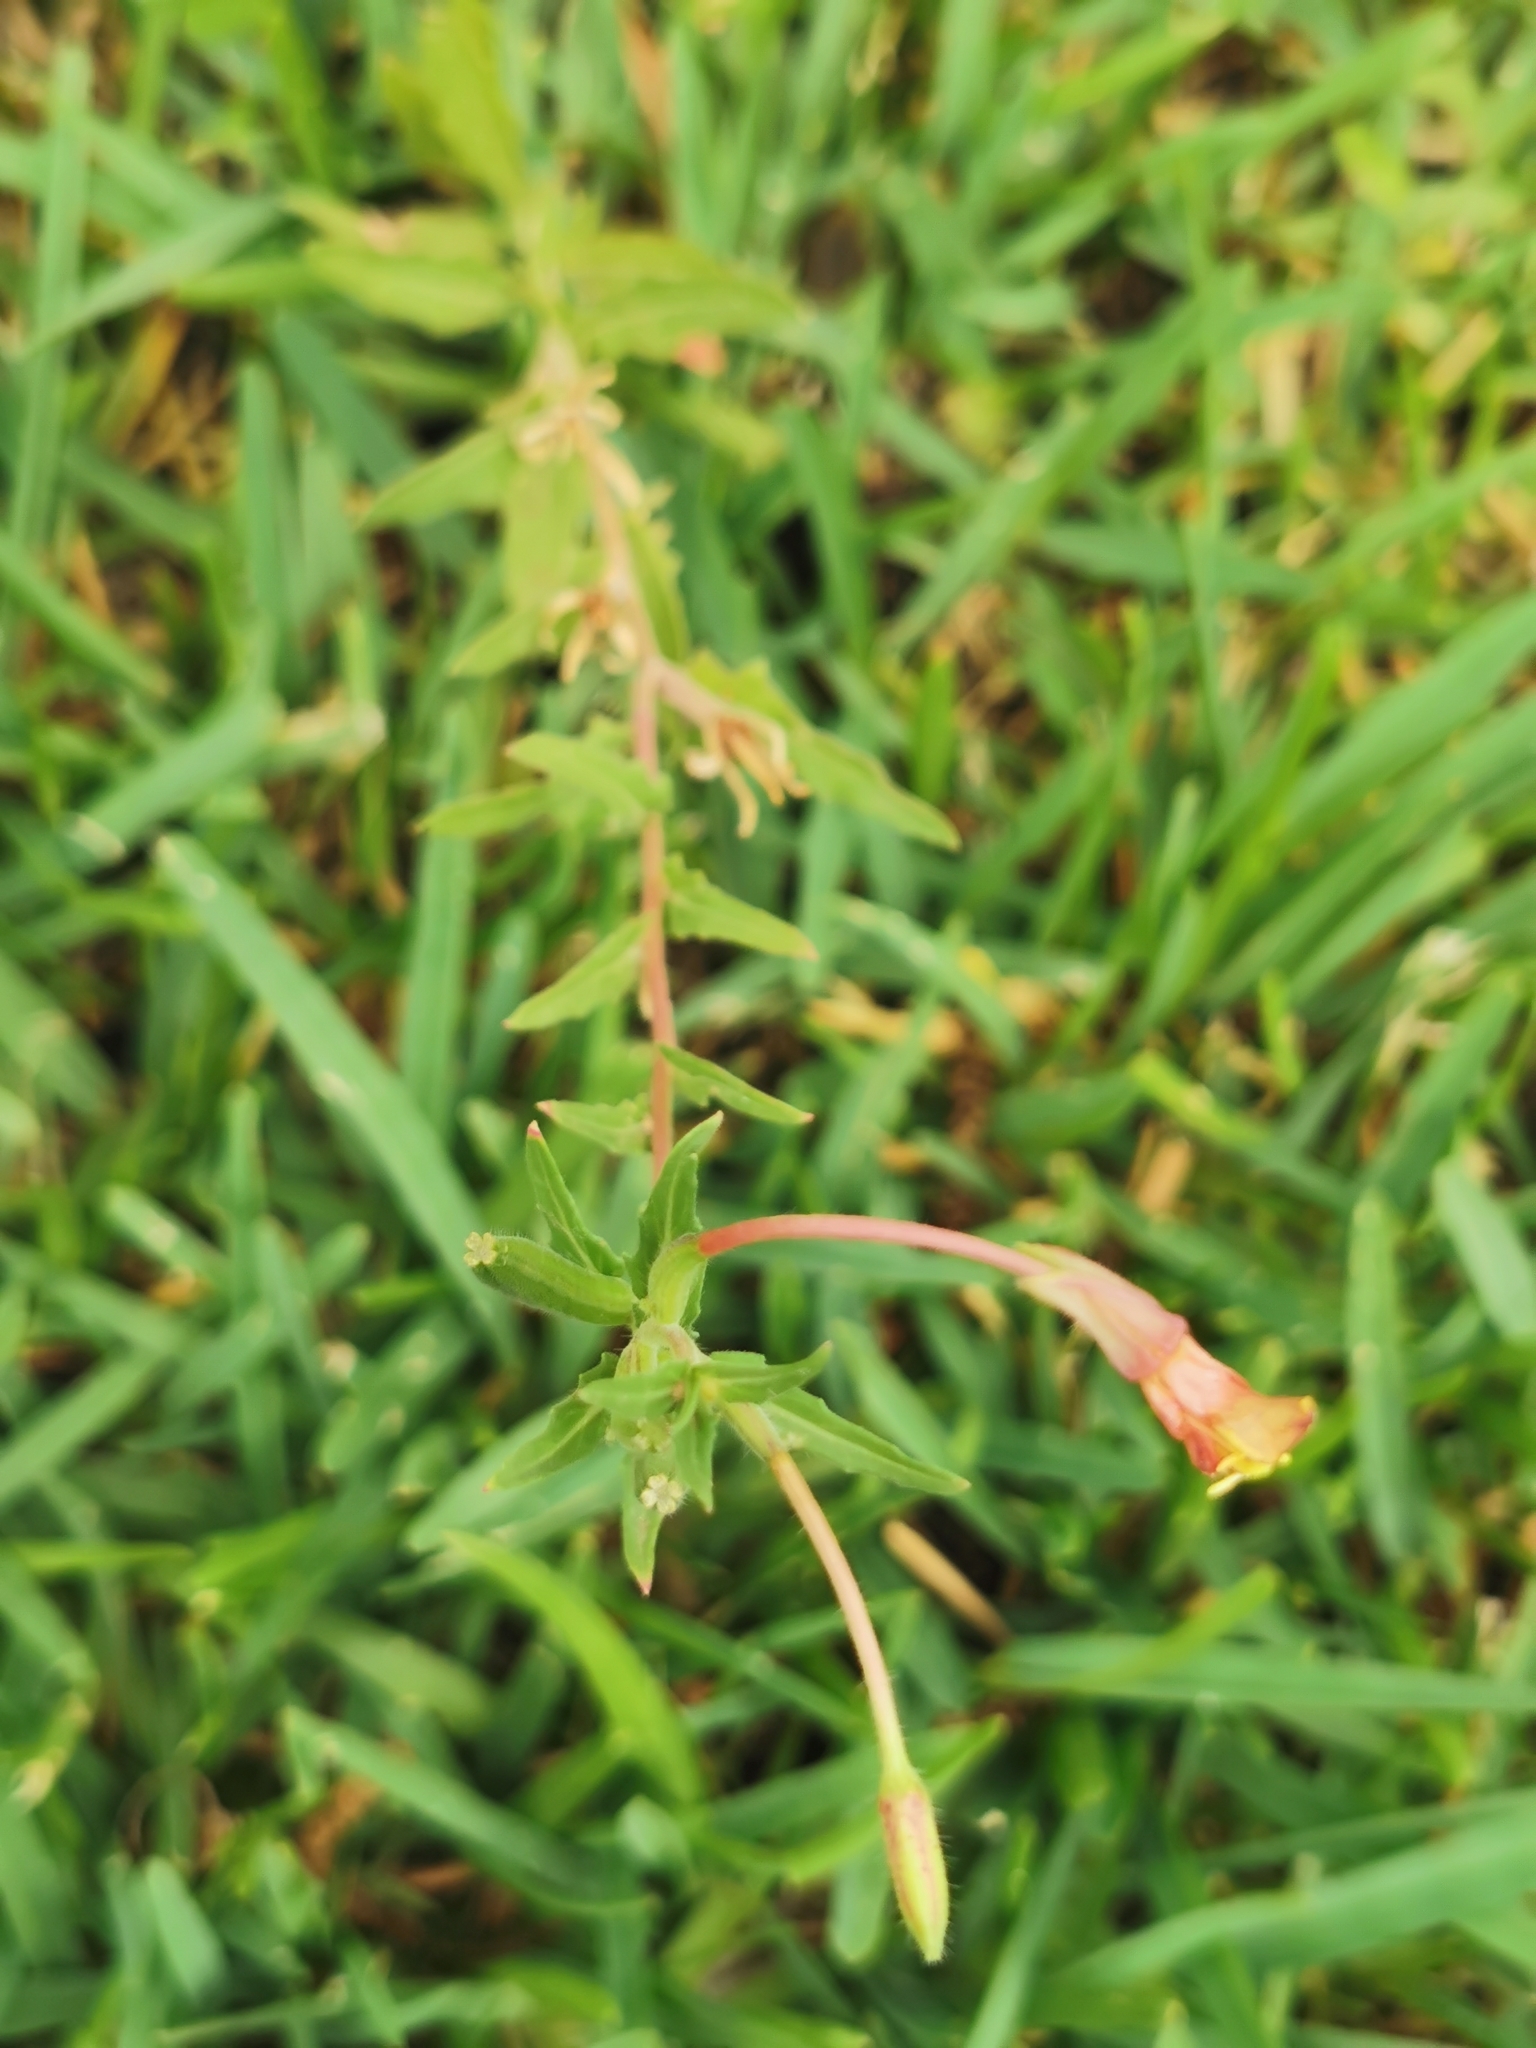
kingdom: Plantae
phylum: Tracheophyta
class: Magnoliopsida
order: Myrtales
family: Onagraceae
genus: Oenothera
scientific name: Oenothera pubescens
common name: South american evening-primrose
